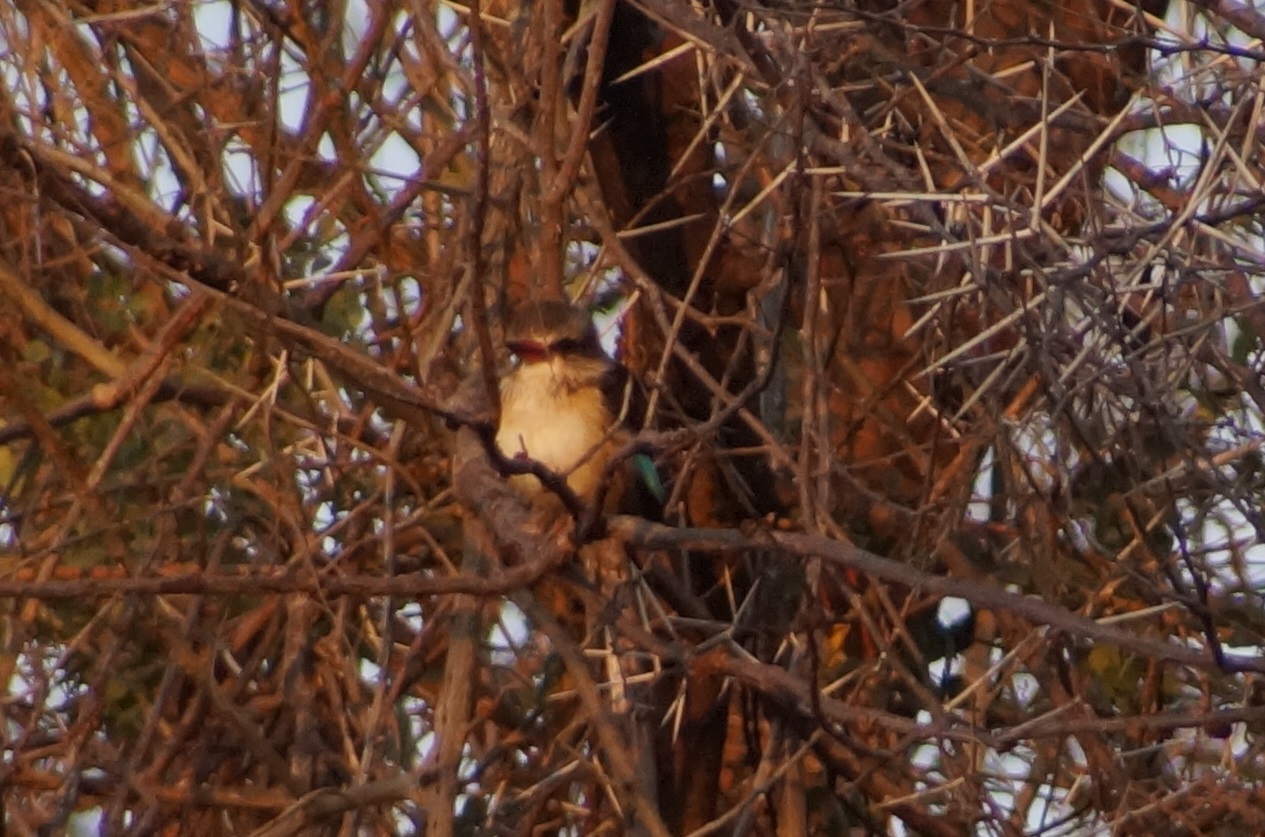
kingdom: Animalia
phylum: Chordata
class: Aves
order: Coraciiformes
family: Alcedinidae
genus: Halcyon
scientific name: Halcyon albiventris
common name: Brown-hooded kingfisher
